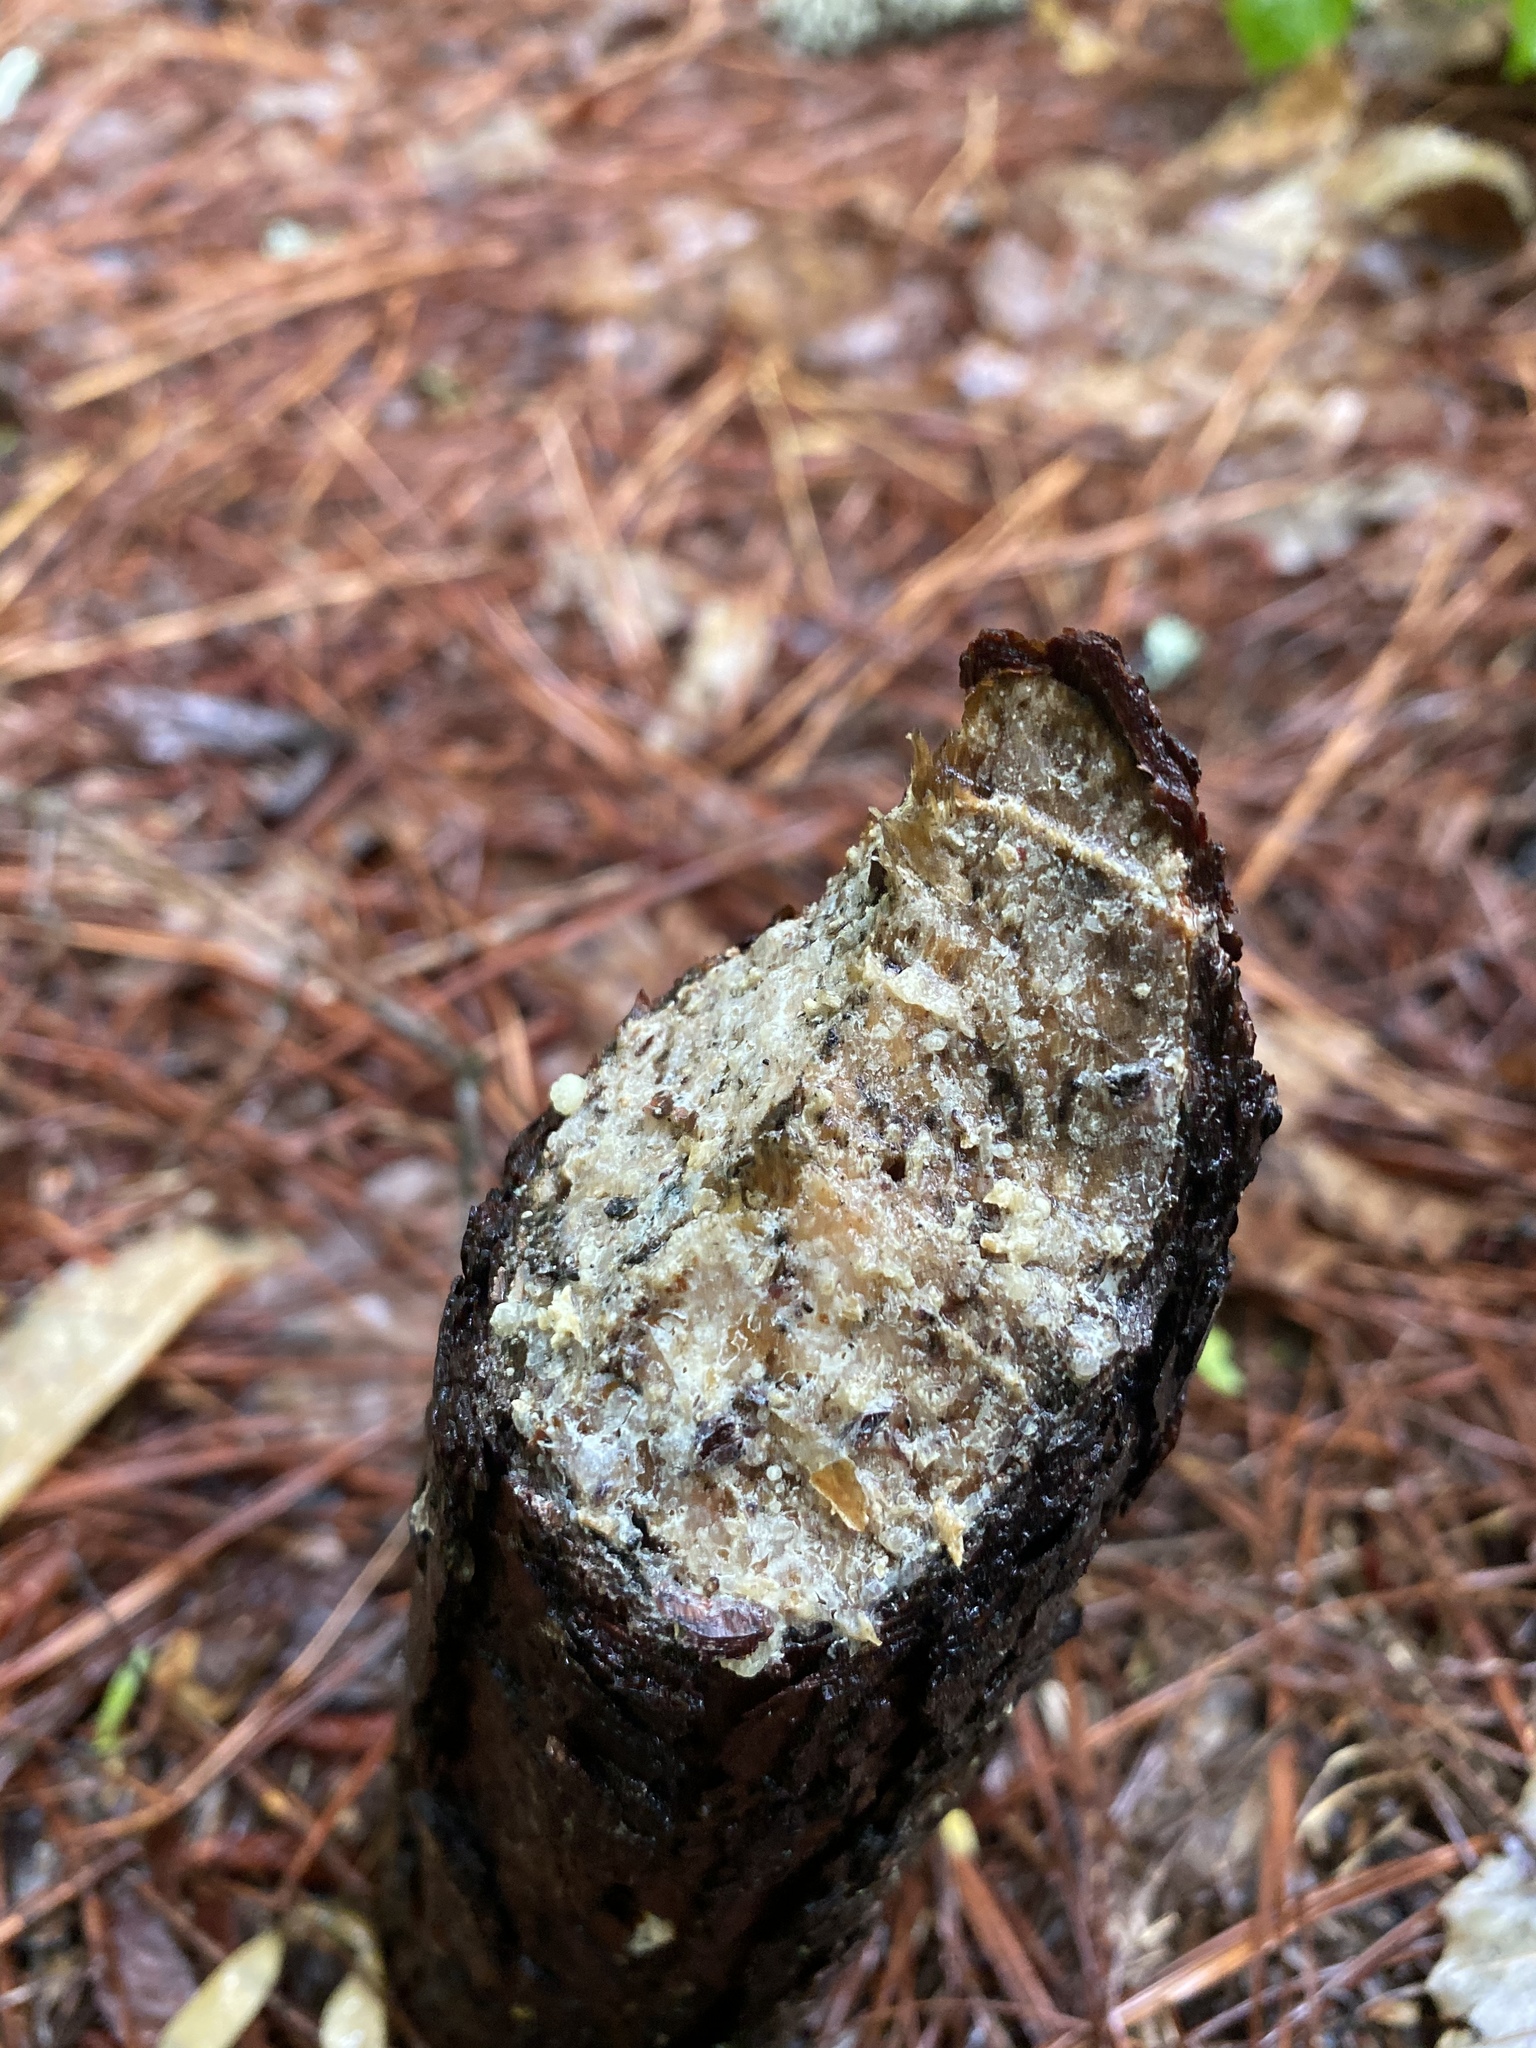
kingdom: Animalia
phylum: Chordata
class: Mammalia
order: Rodentia
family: Castoridae
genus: Castor
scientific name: Castor canadensis
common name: American beaver
